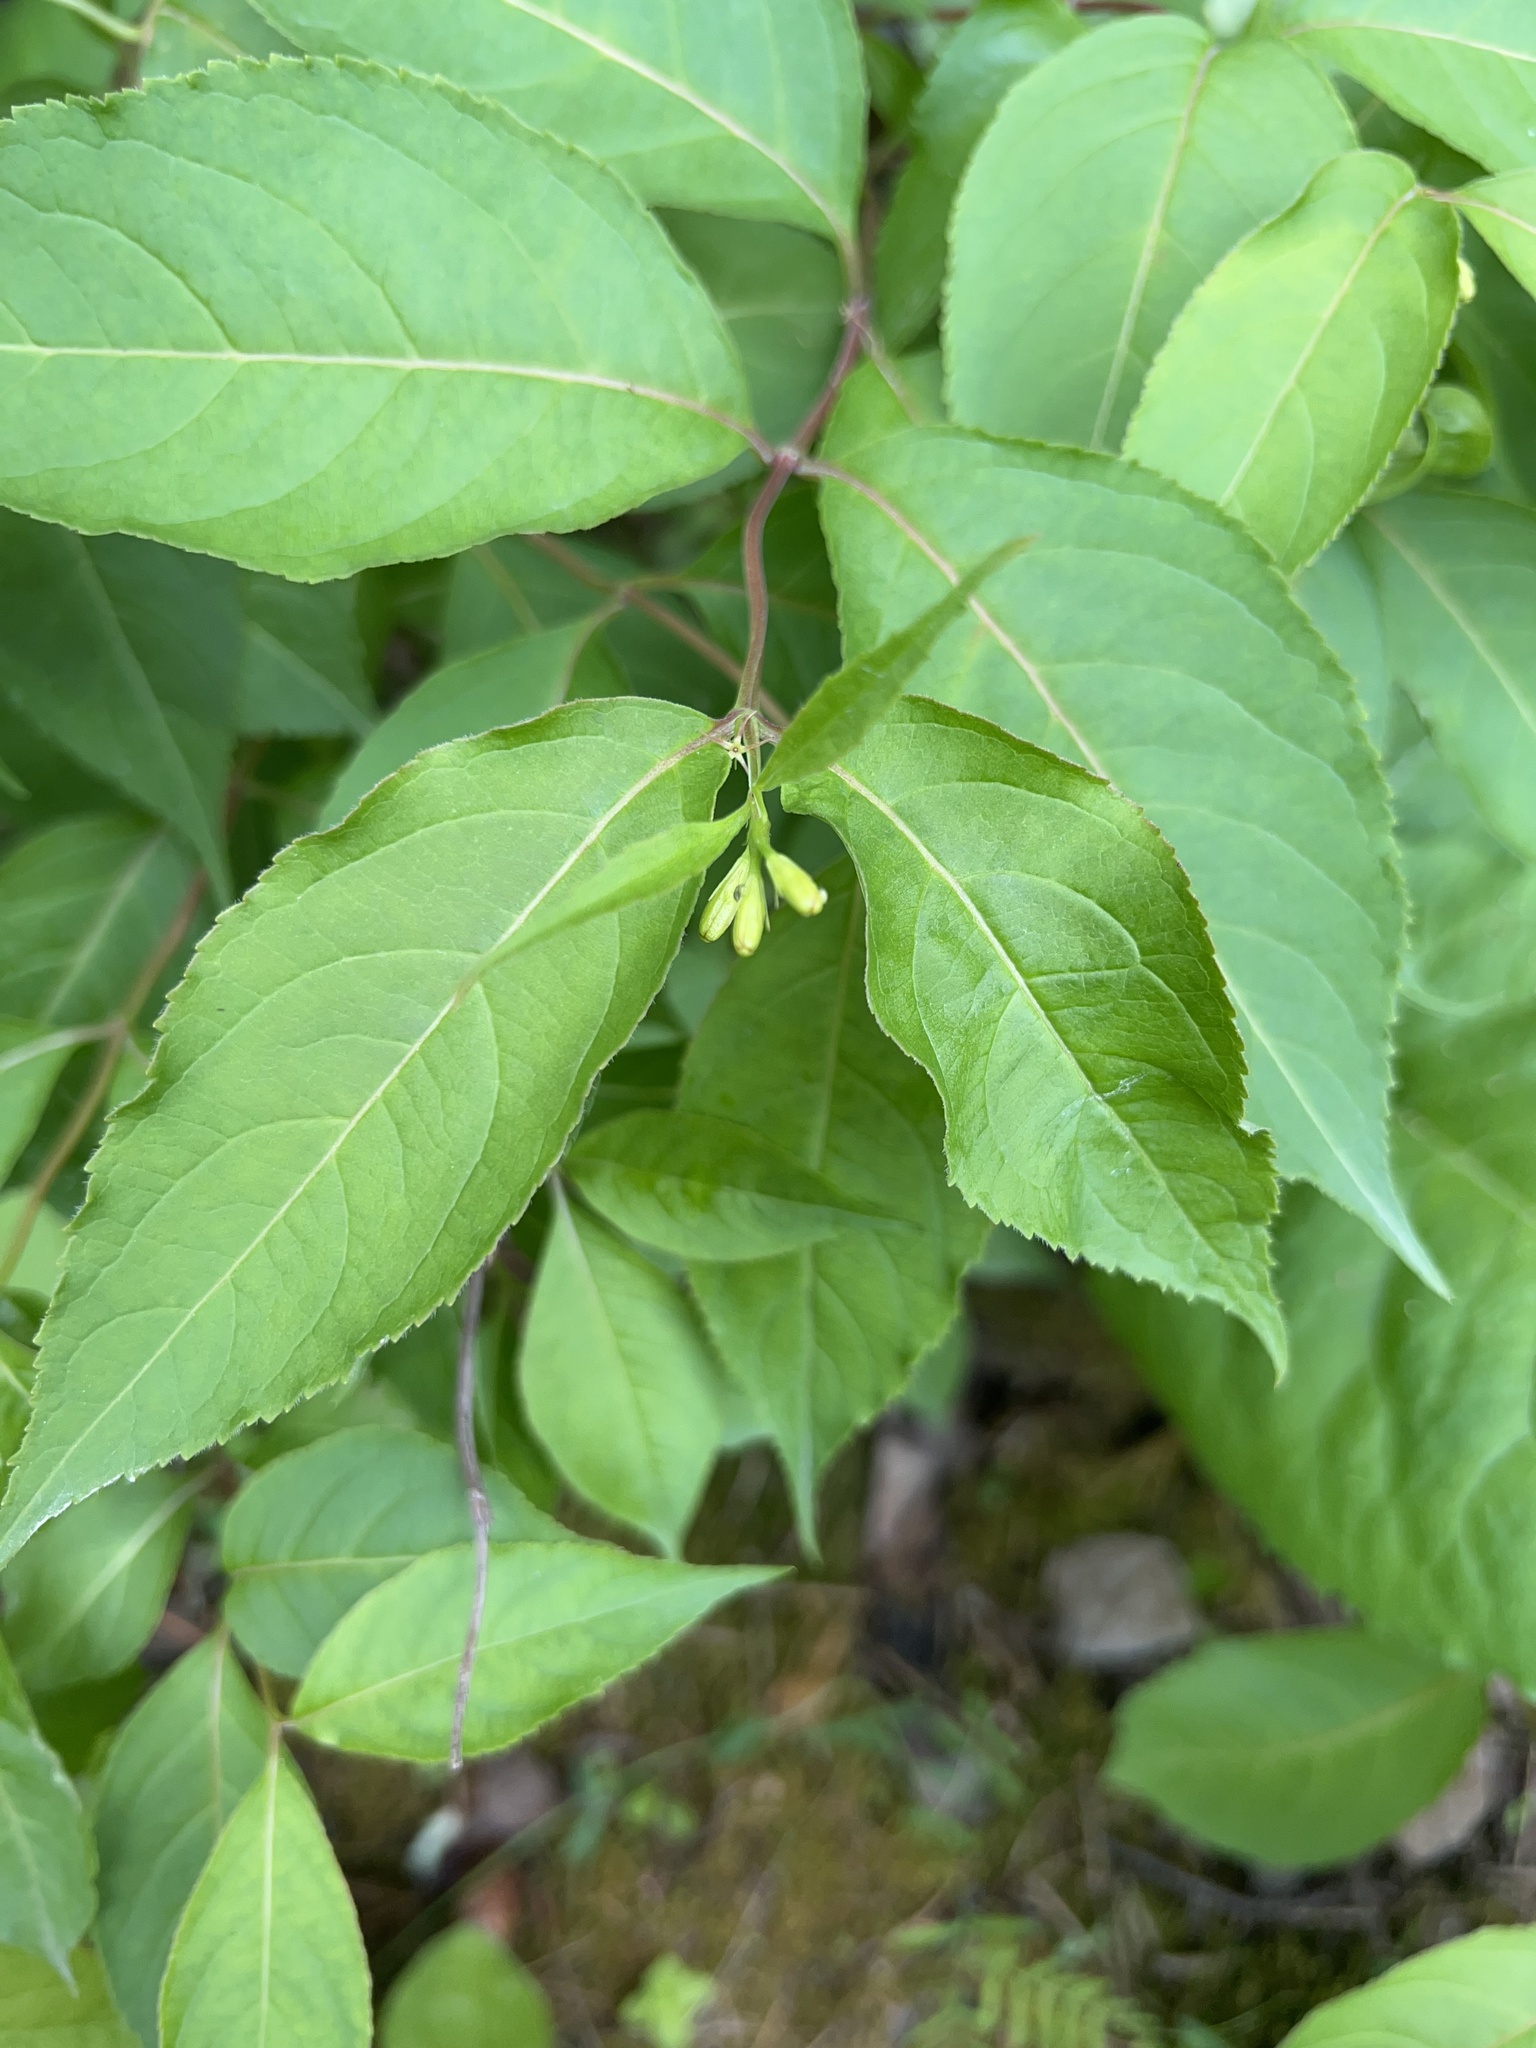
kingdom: Plantae
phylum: Tracheophyta
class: Magnoliopsida
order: Dipsacales
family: Caprifoliaceae
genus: Diervilla
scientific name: Diervilla lonicera
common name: Bush-honeysuckle
